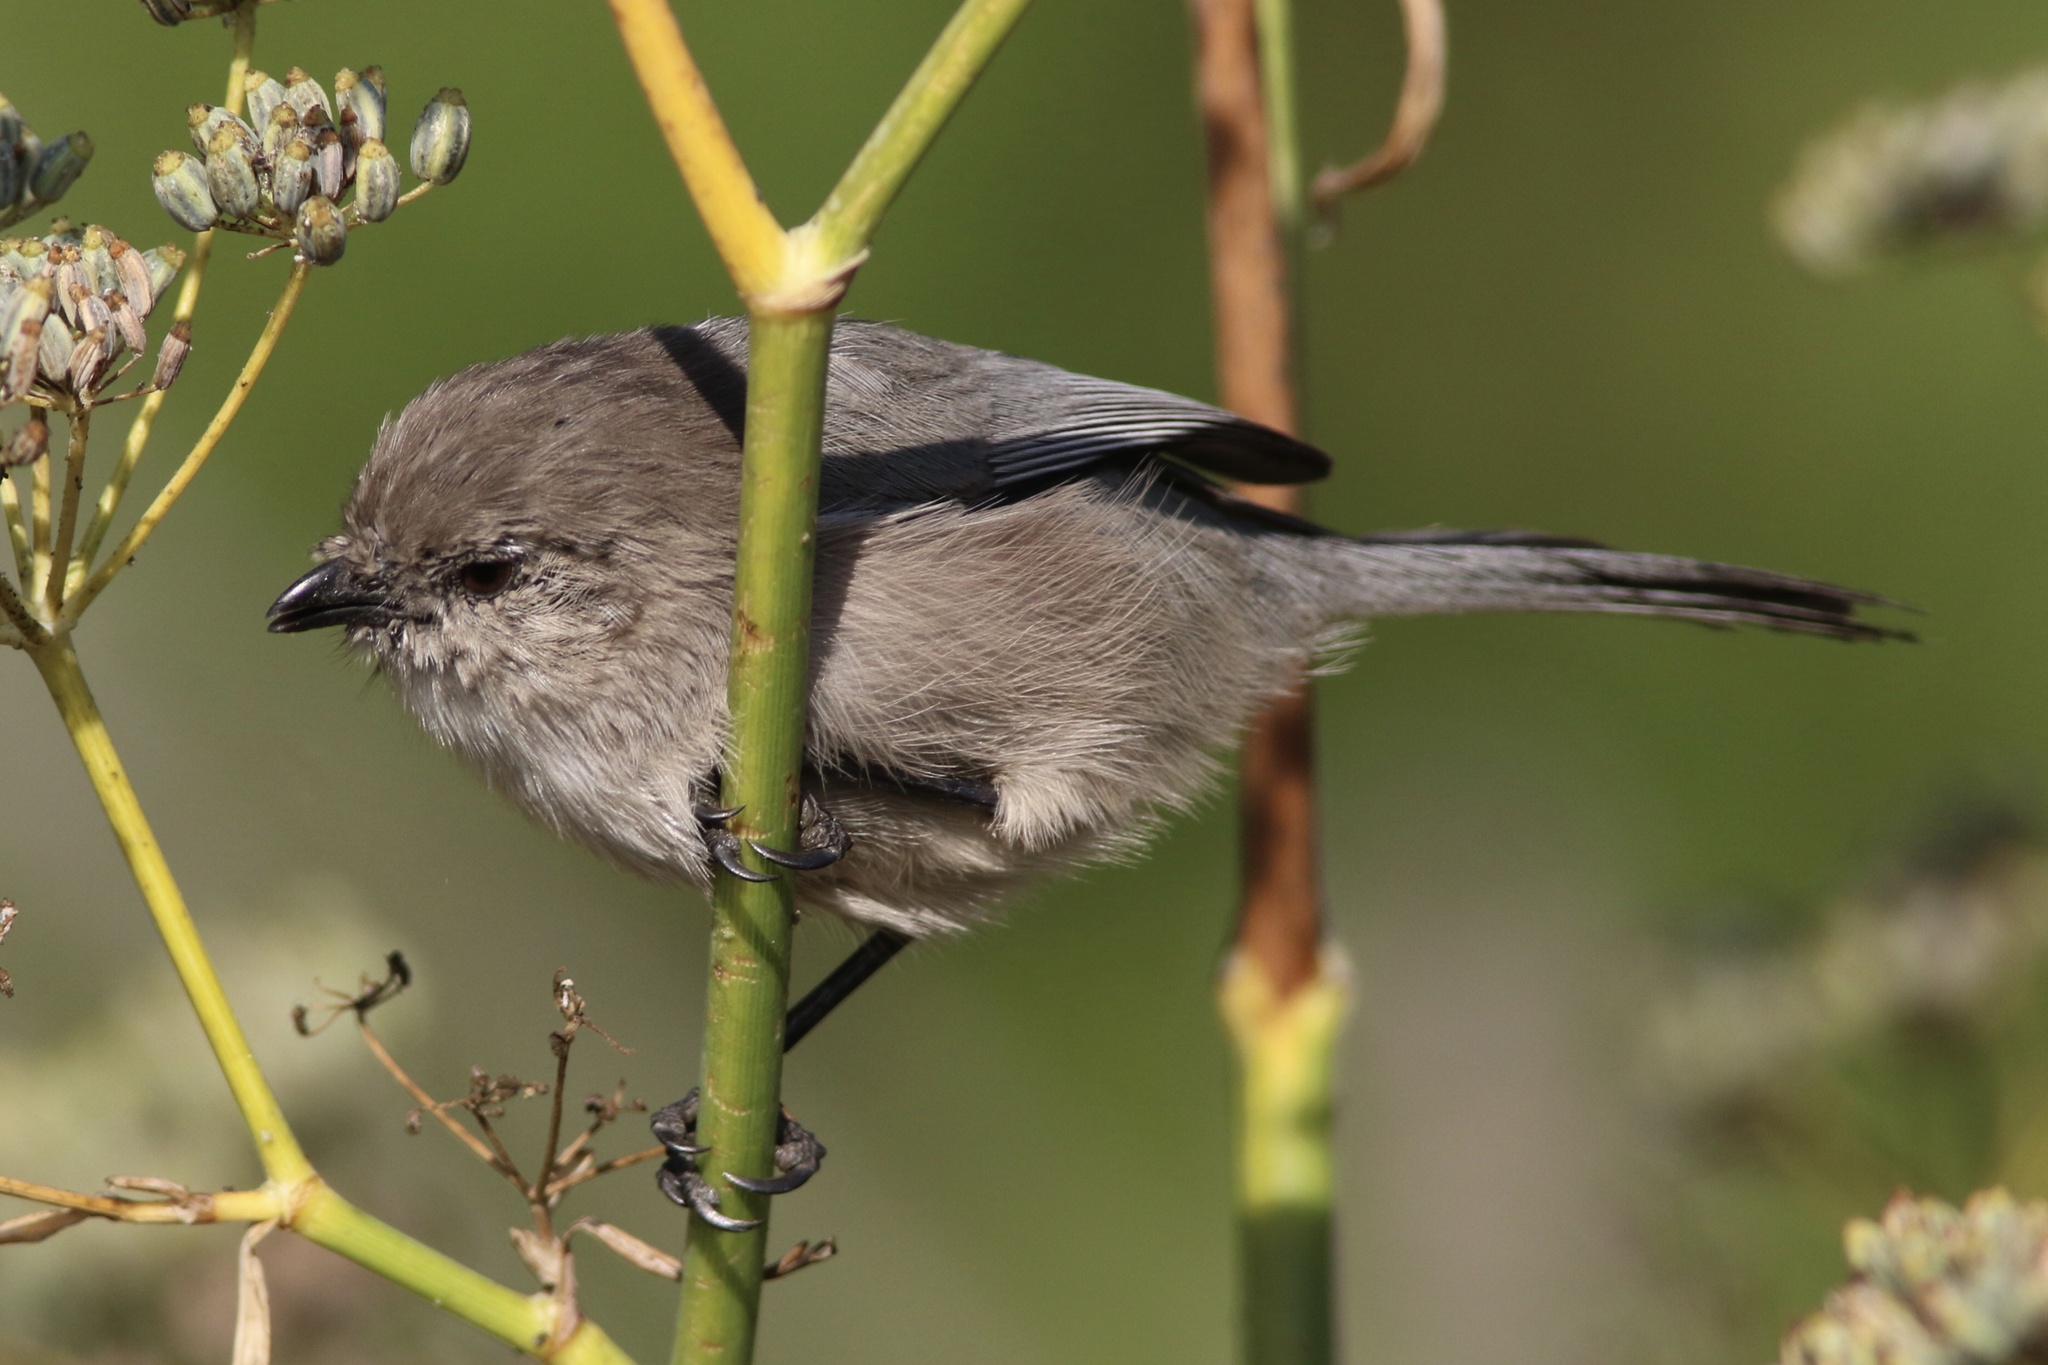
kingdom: Animalia
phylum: Chordata
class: Aves
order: Passeriformes
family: Aegithalidae
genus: Psaltriparus
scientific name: Psaltriparus minimus
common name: American bushtit
